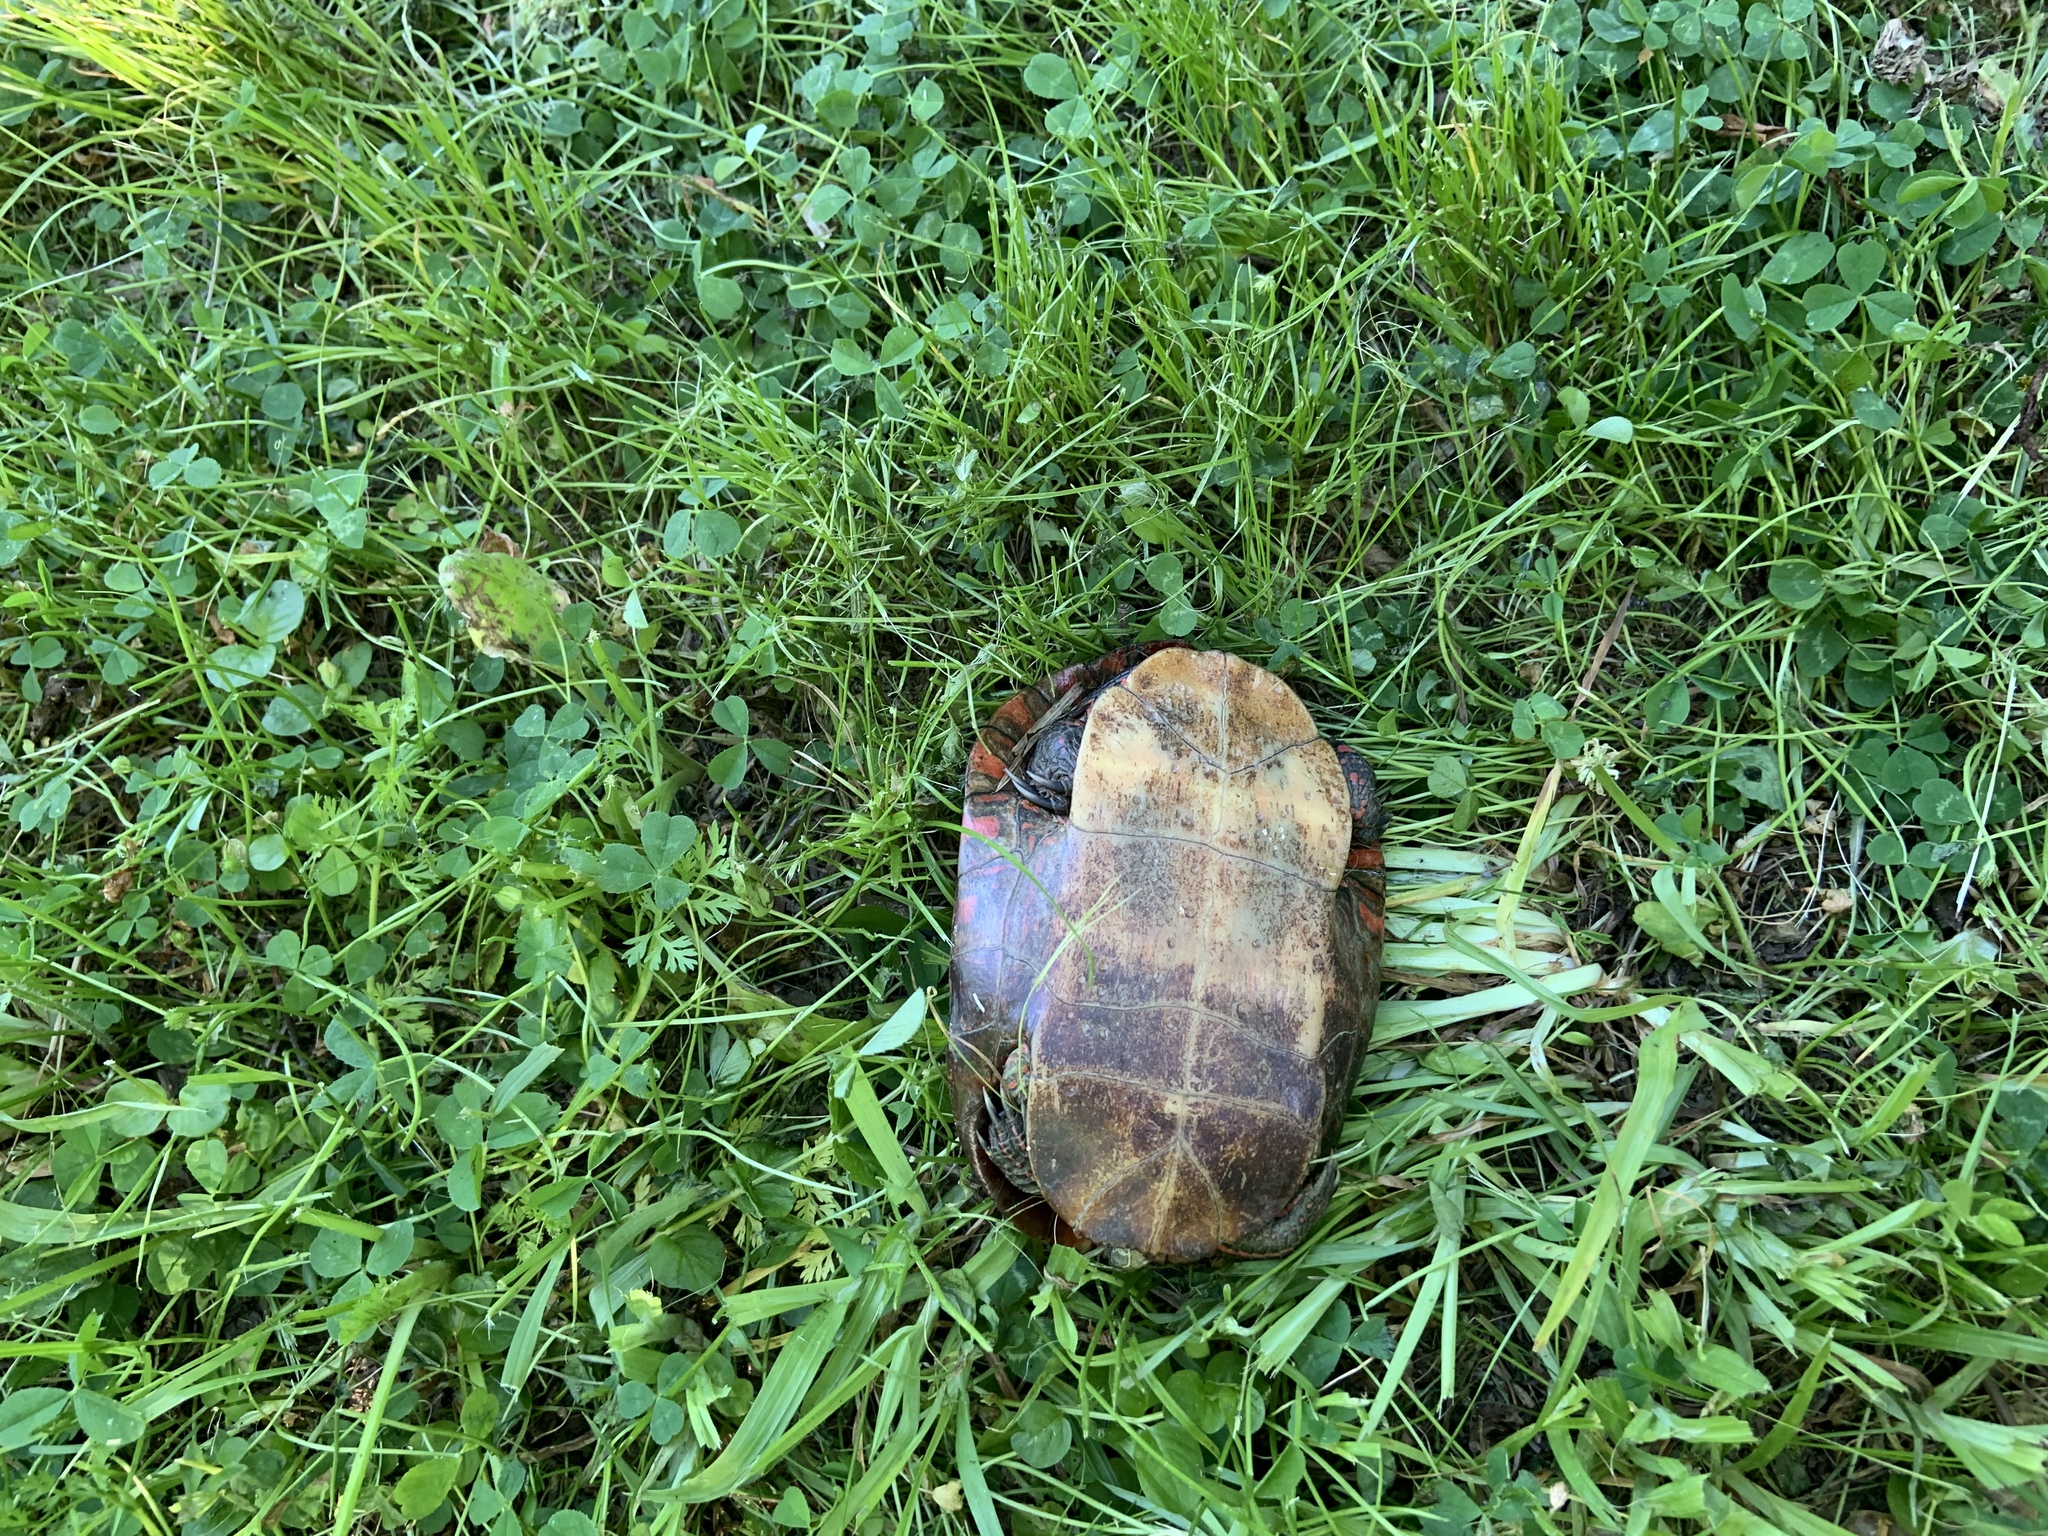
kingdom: Animalia
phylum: Chordata
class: Testudines
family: Emydidae
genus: Chrysemys
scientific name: Chrysemys picta
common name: Painted turtle
